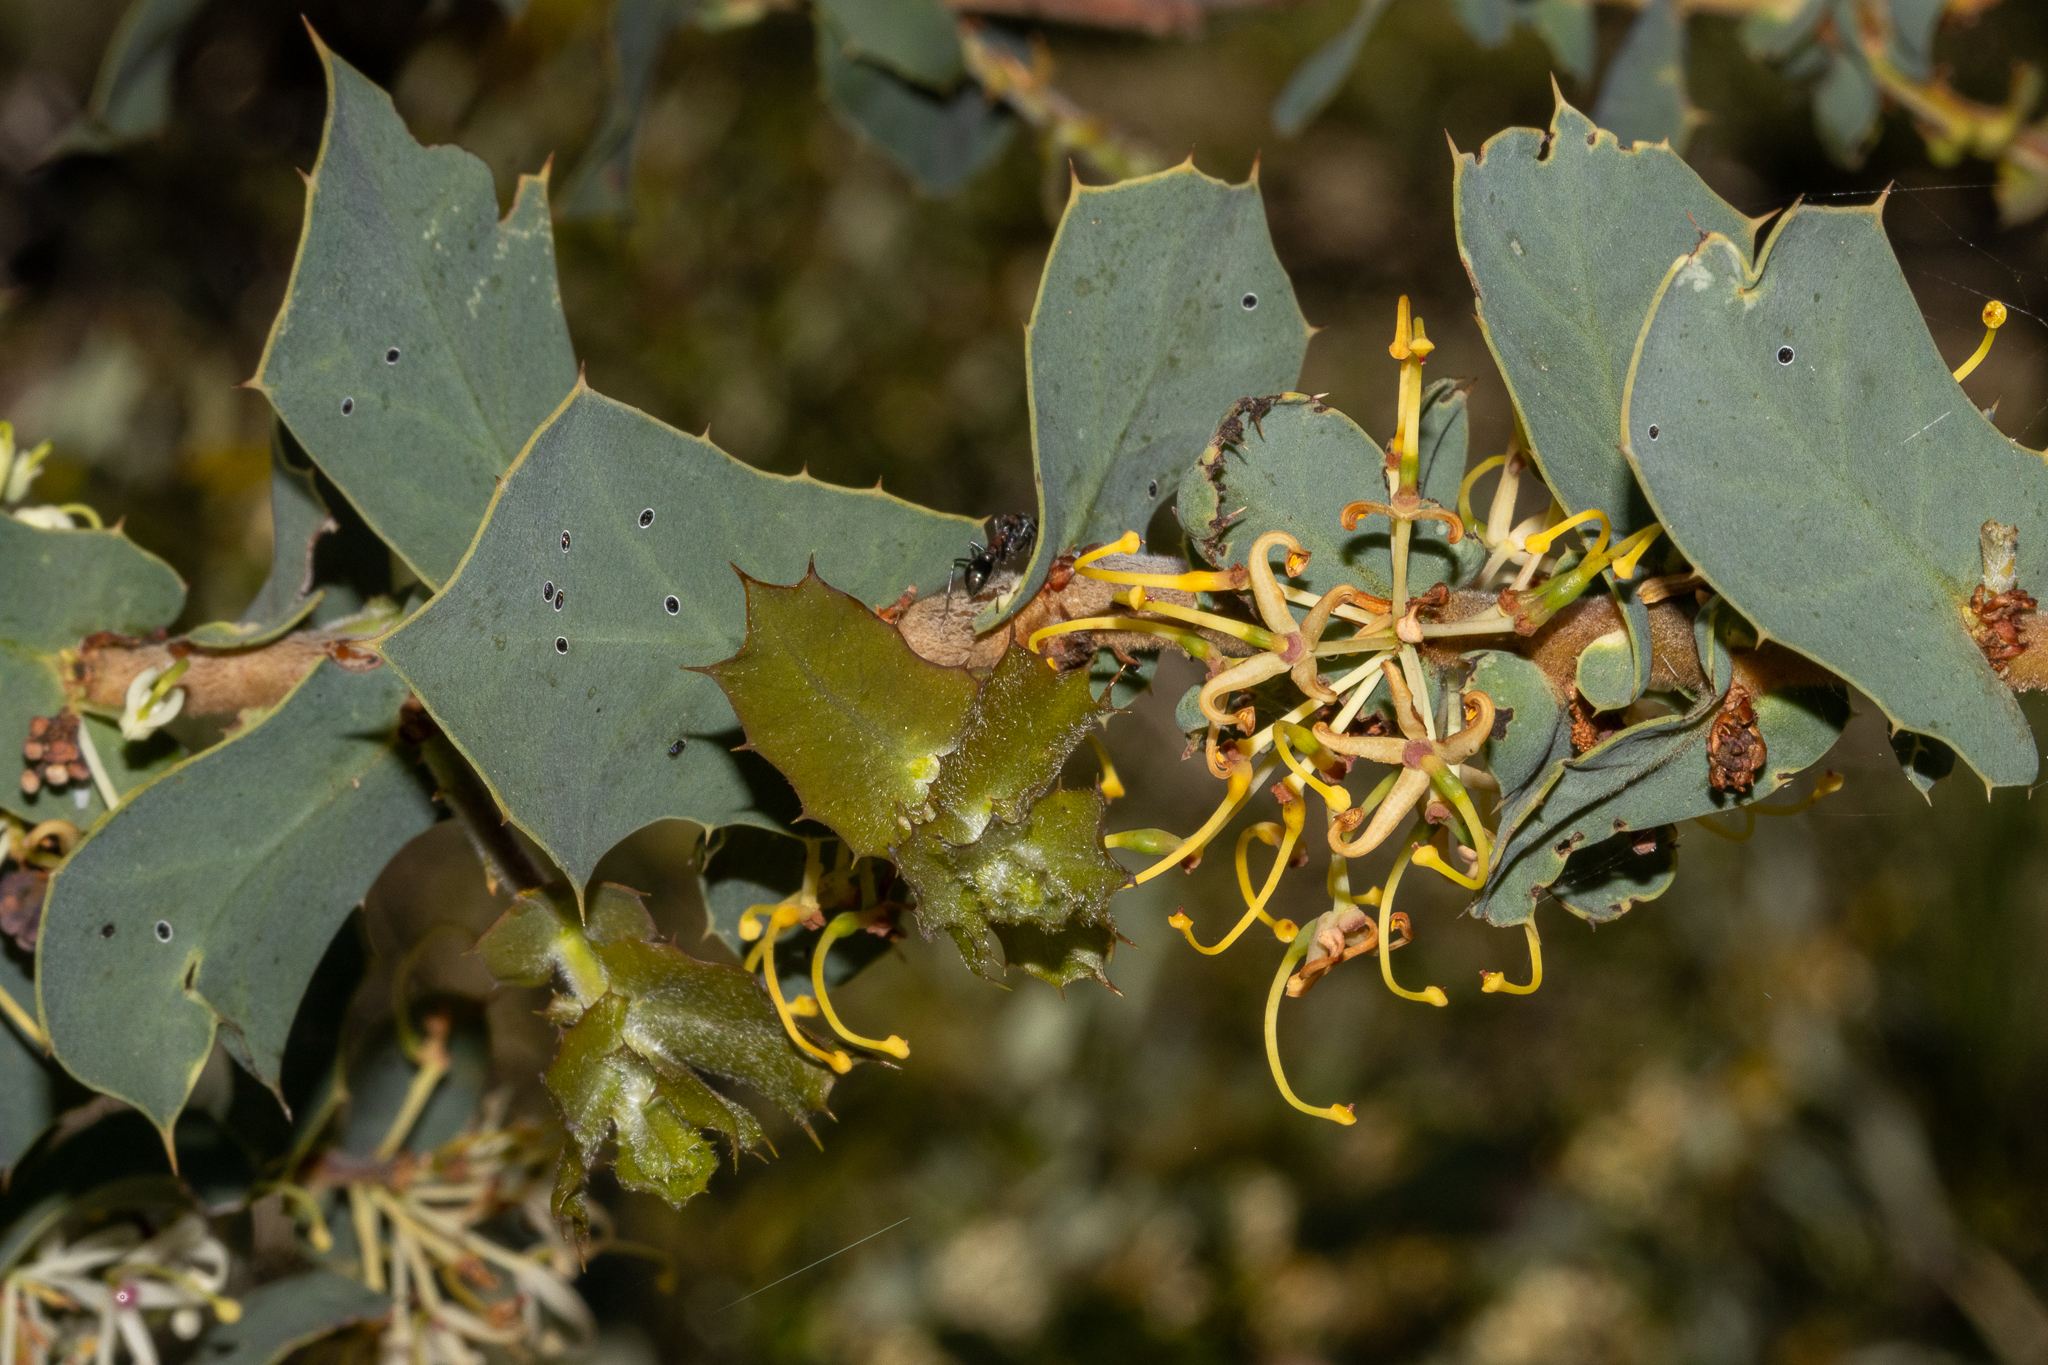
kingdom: Plantae
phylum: Tracheophyta
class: Magnoliopsida
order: Proteales
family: Proteaceae
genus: Hakea
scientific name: Hakea prostrata
